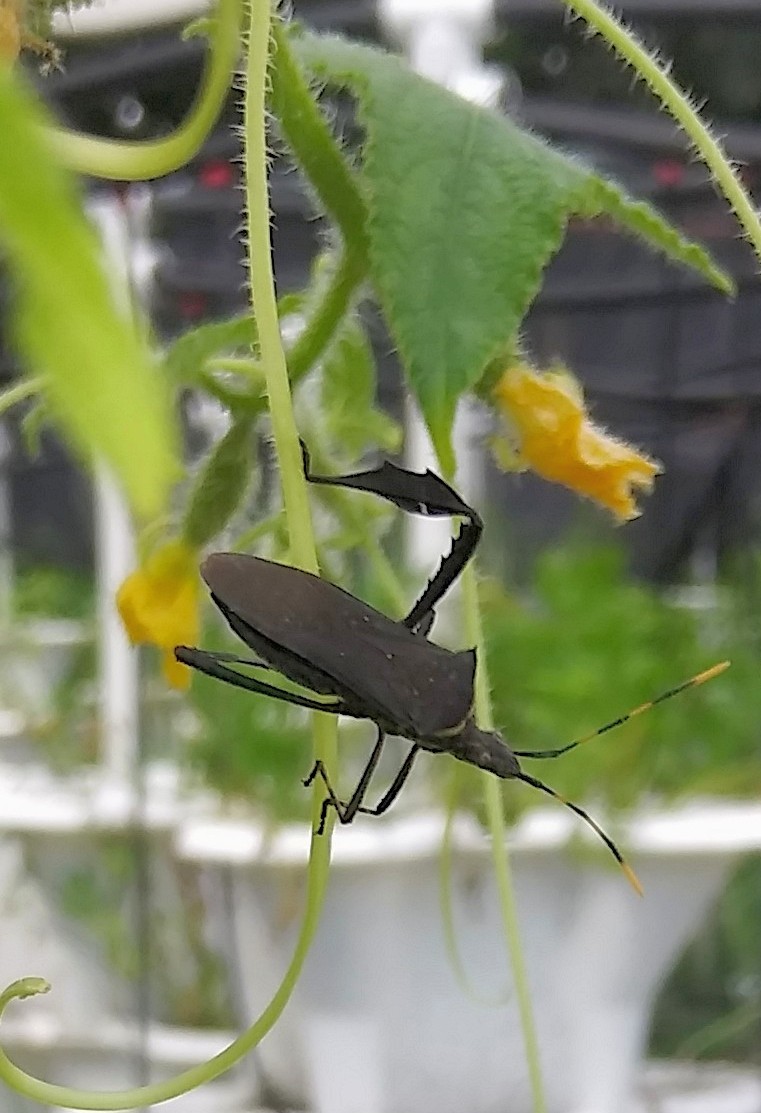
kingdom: Animalia
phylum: Arthropoda
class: Insecta
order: Hemiptera
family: Coreidae
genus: Leptoglossus
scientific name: Leptoglossus gonagra
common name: Citron bug
